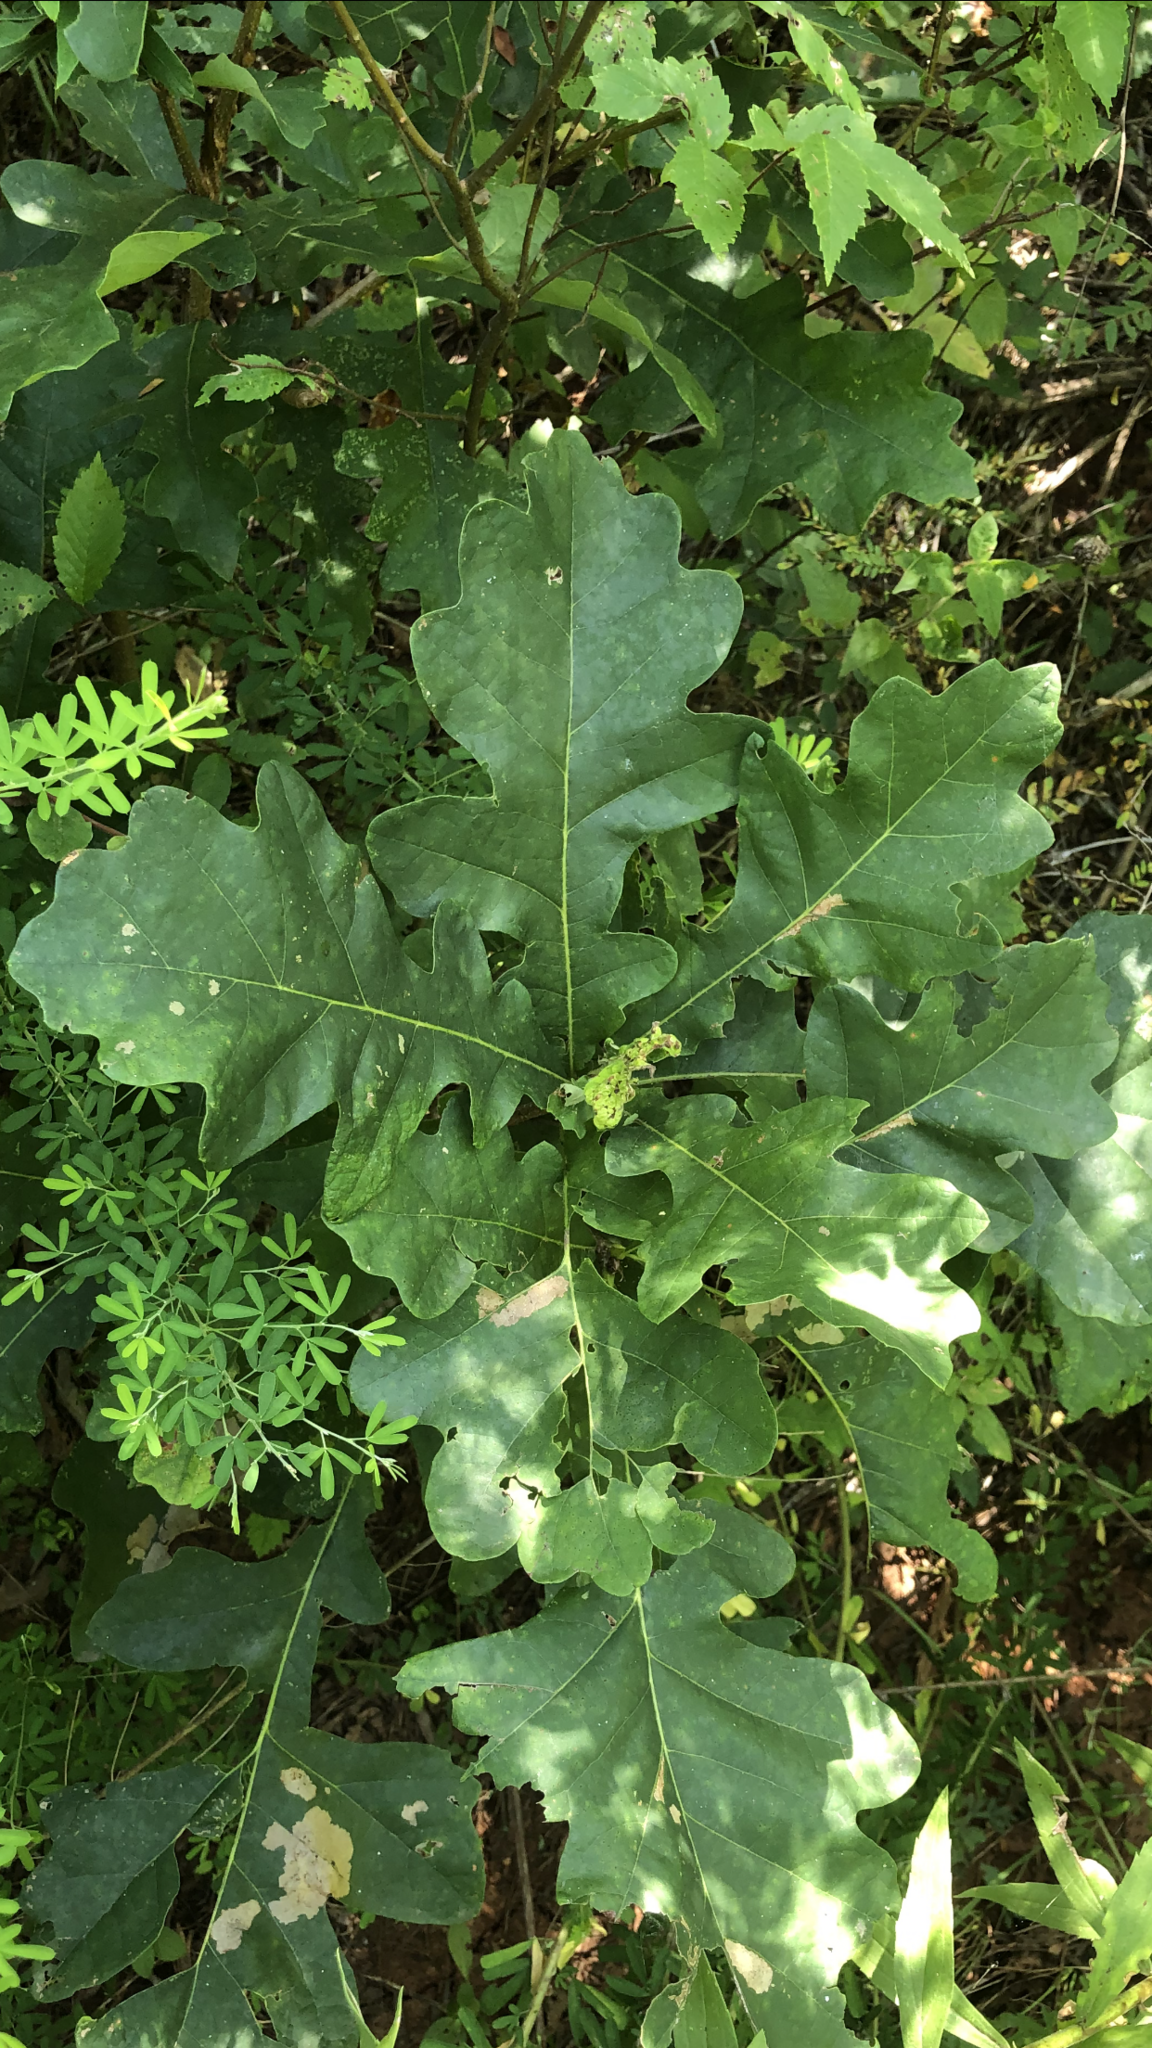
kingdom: Plantae
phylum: Tracheophyta
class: Magnoliopsida
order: Fagales
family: Fagaceae
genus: Quercus
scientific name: Quercus macrocarpa
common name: Bur oak
